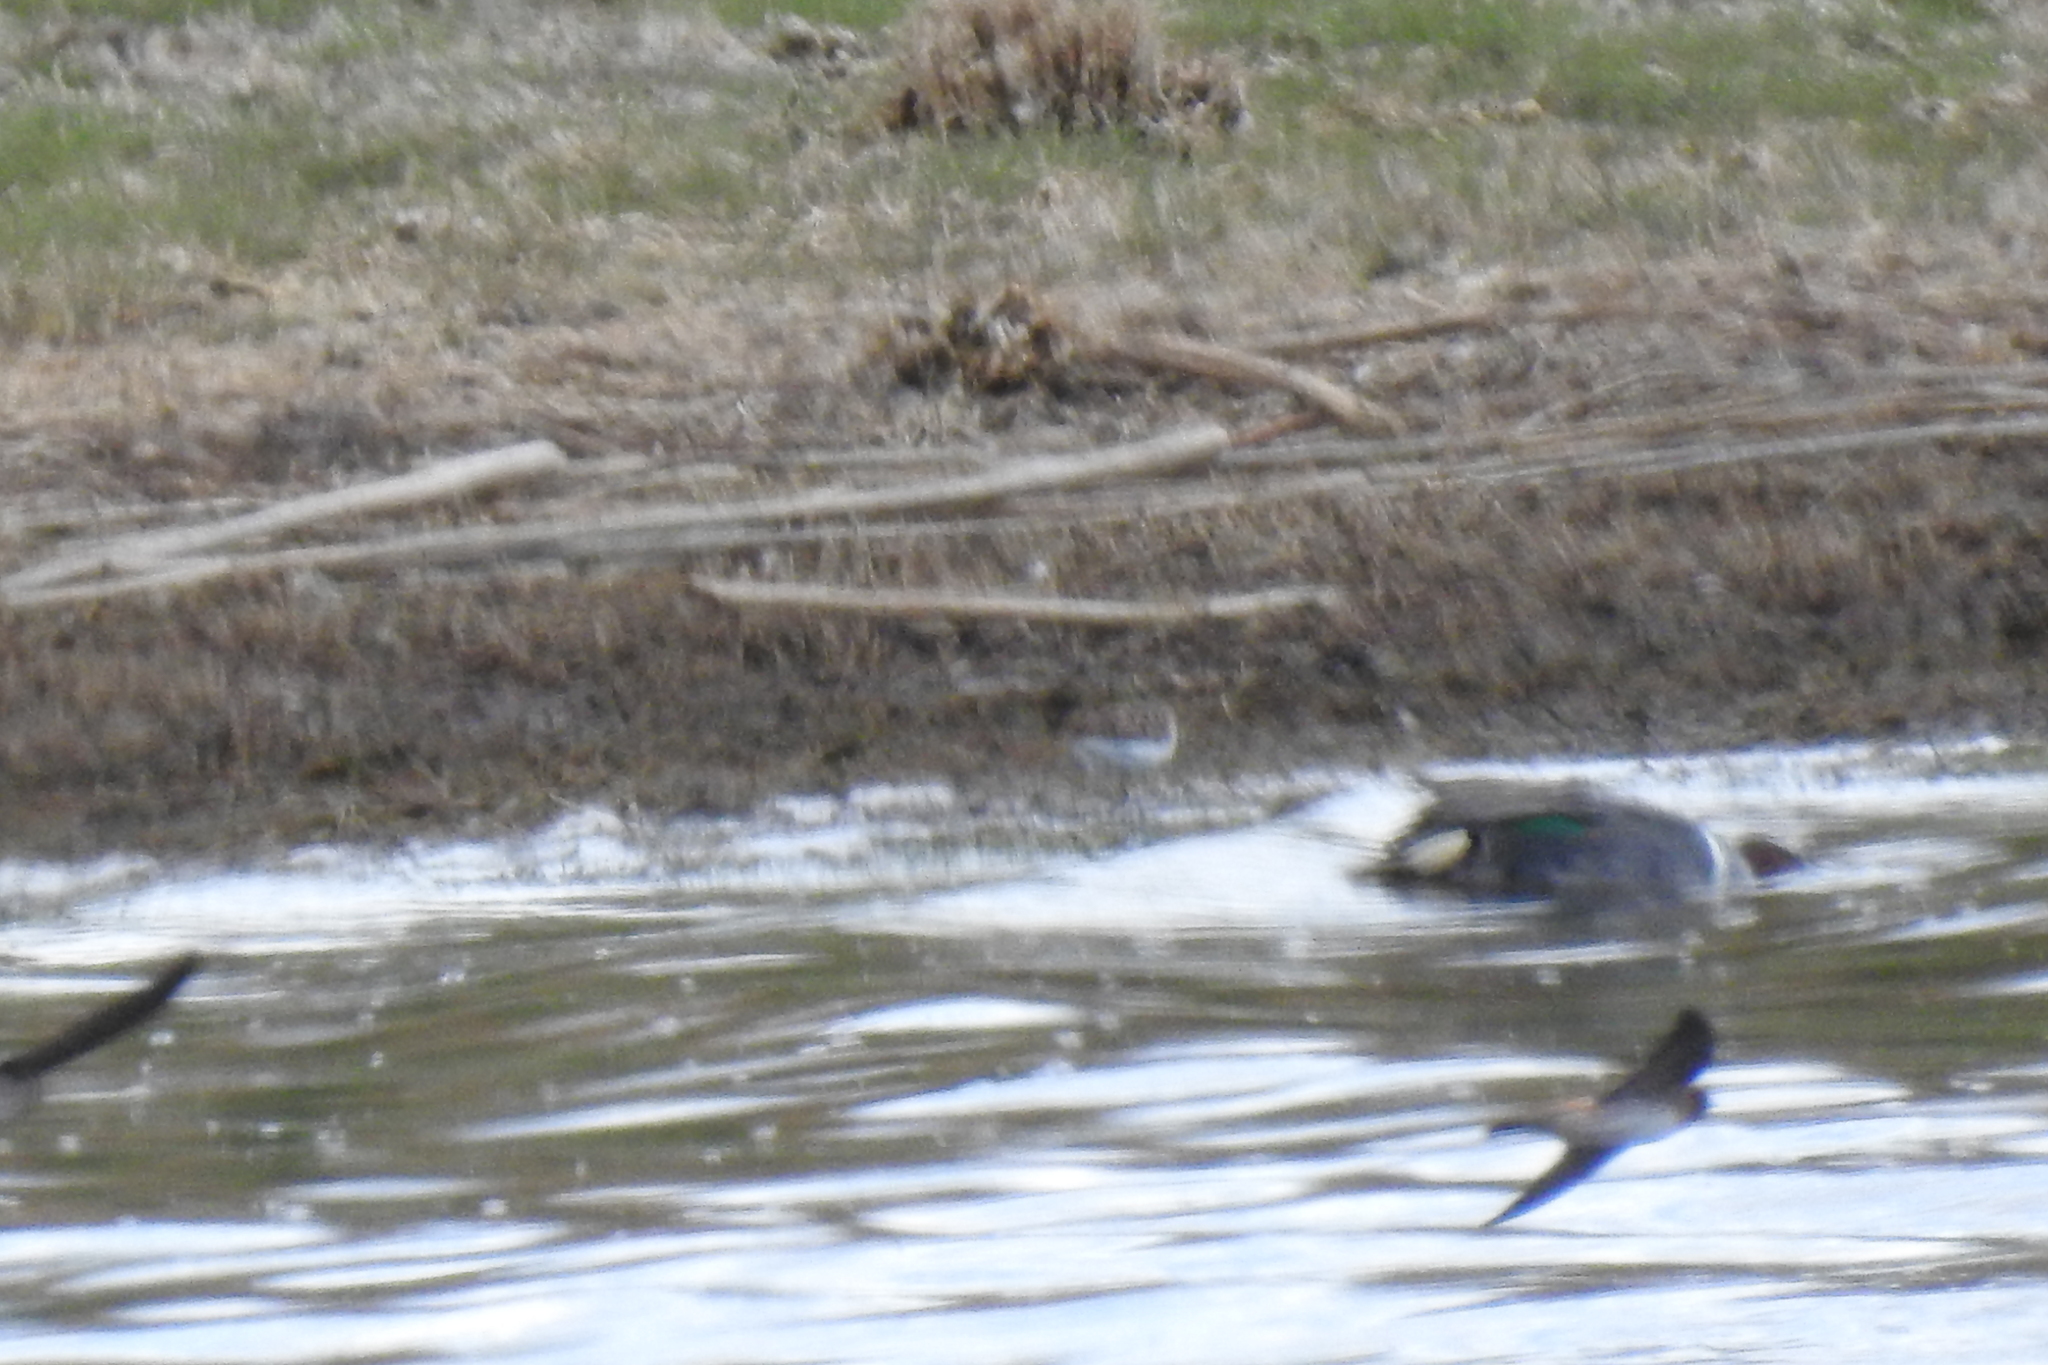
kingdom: Animalia
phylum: Chordata
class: Aves
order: Anseriformes
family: Anatidae
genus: Anas
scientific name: Anas crecca
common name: Eurasian teal
